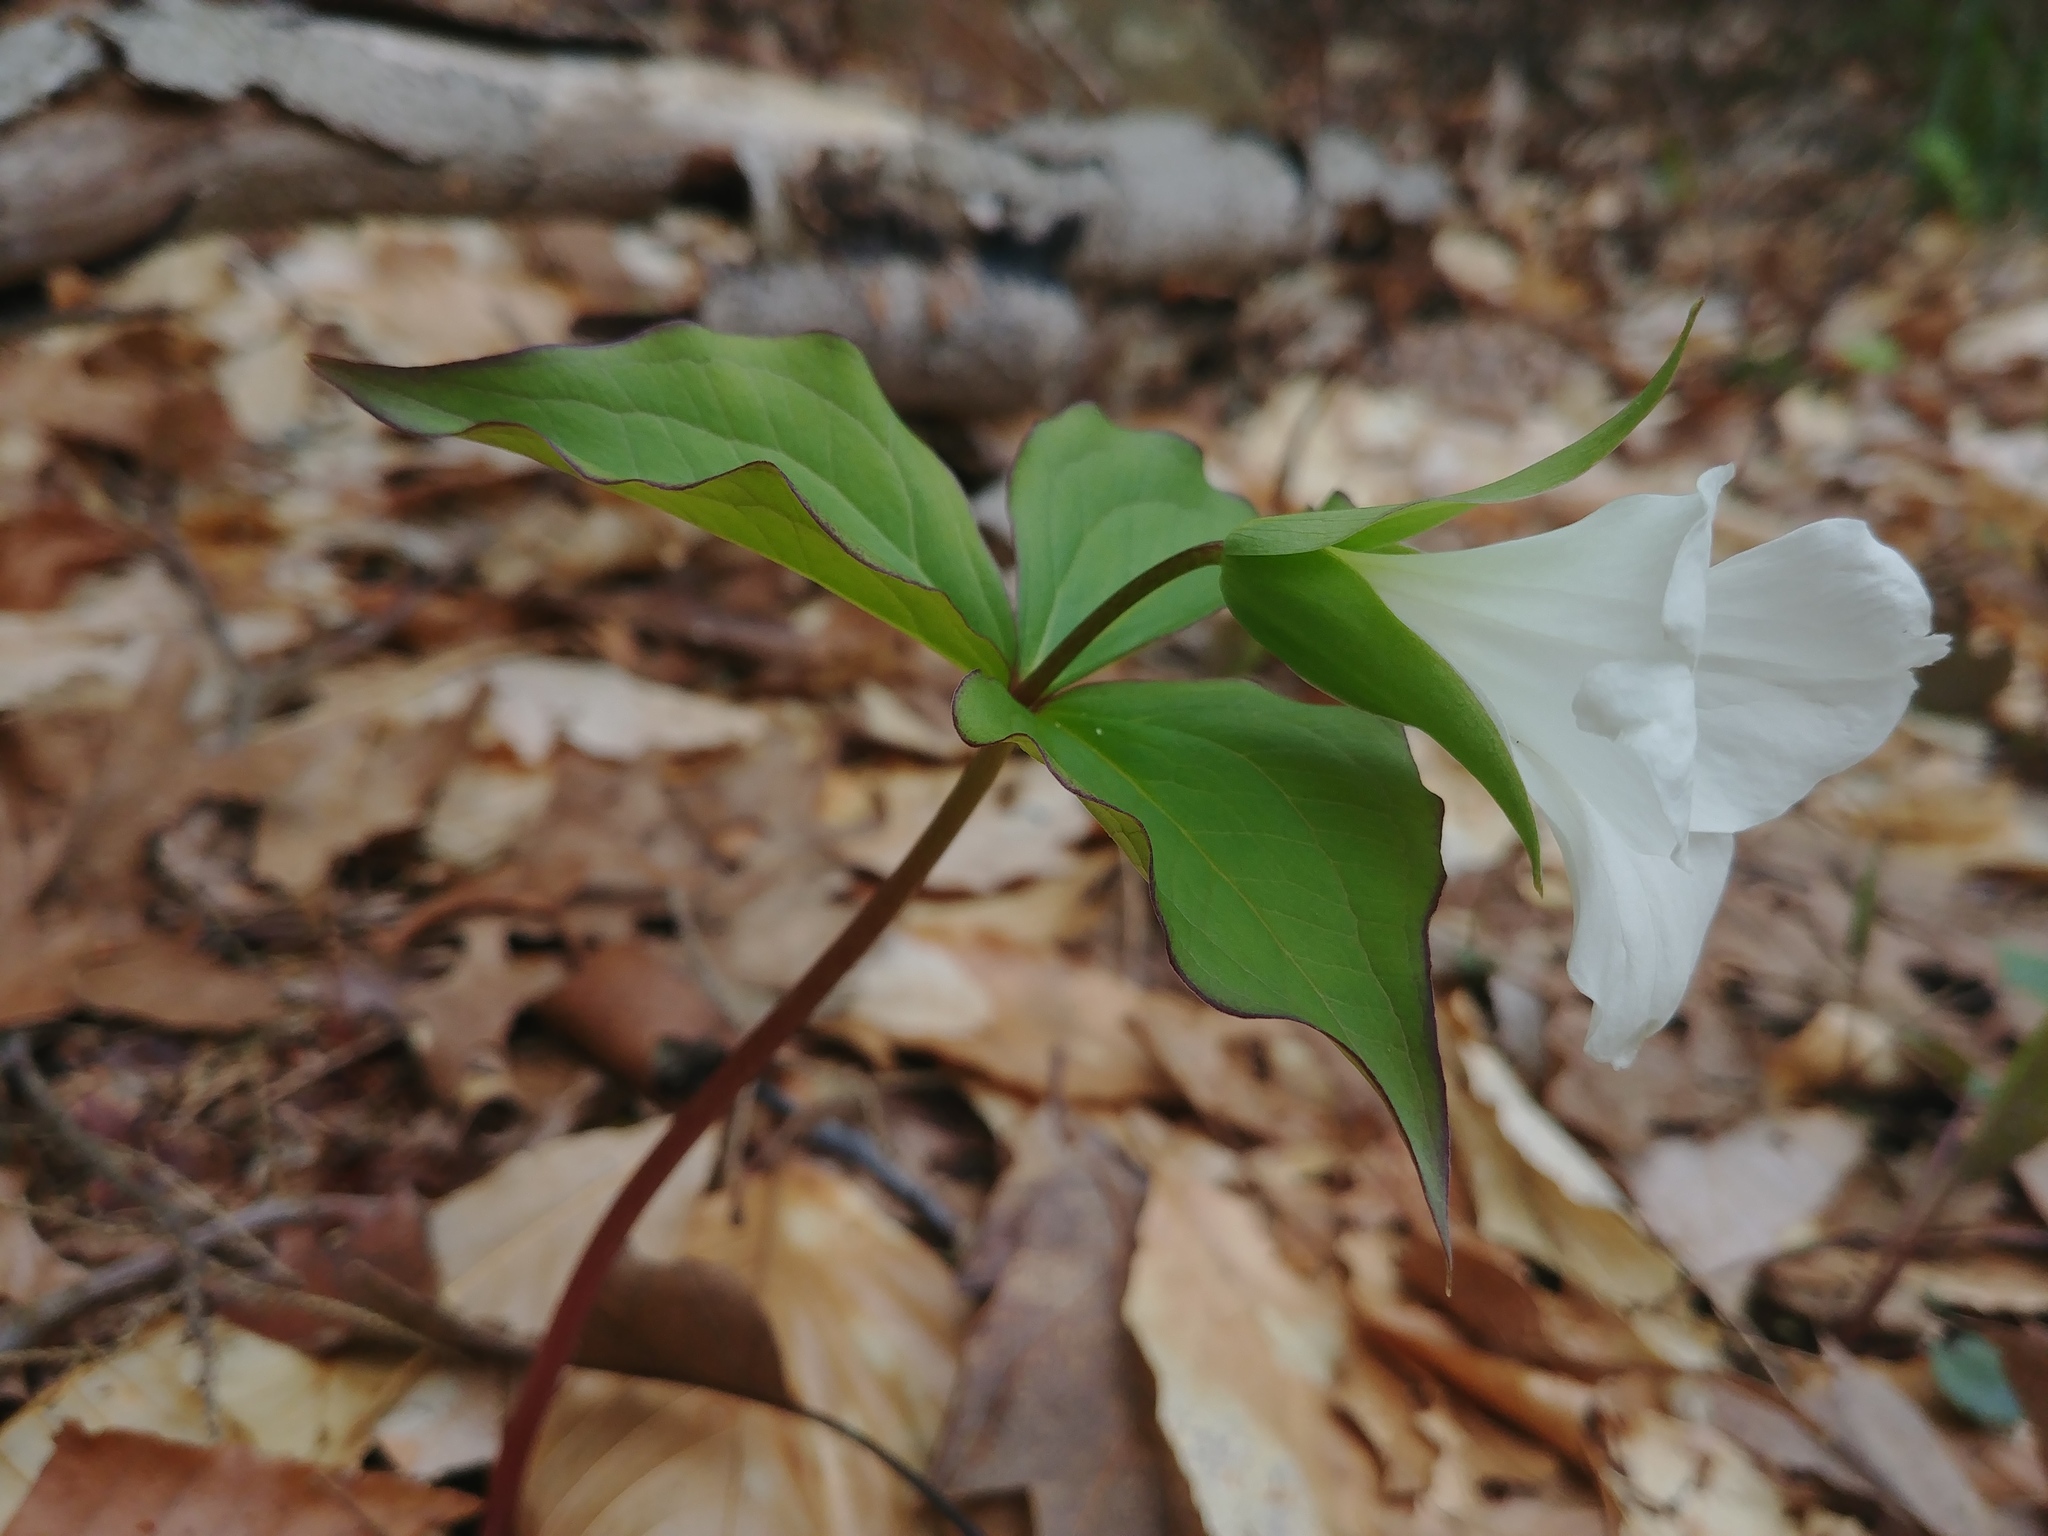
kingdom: Plantae
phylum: Tracheophyta
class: Liliopsida
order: Liliales
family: Melanthiaceae
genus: Trillium
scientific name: Trillium grandiflorum
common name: Great white trillium
